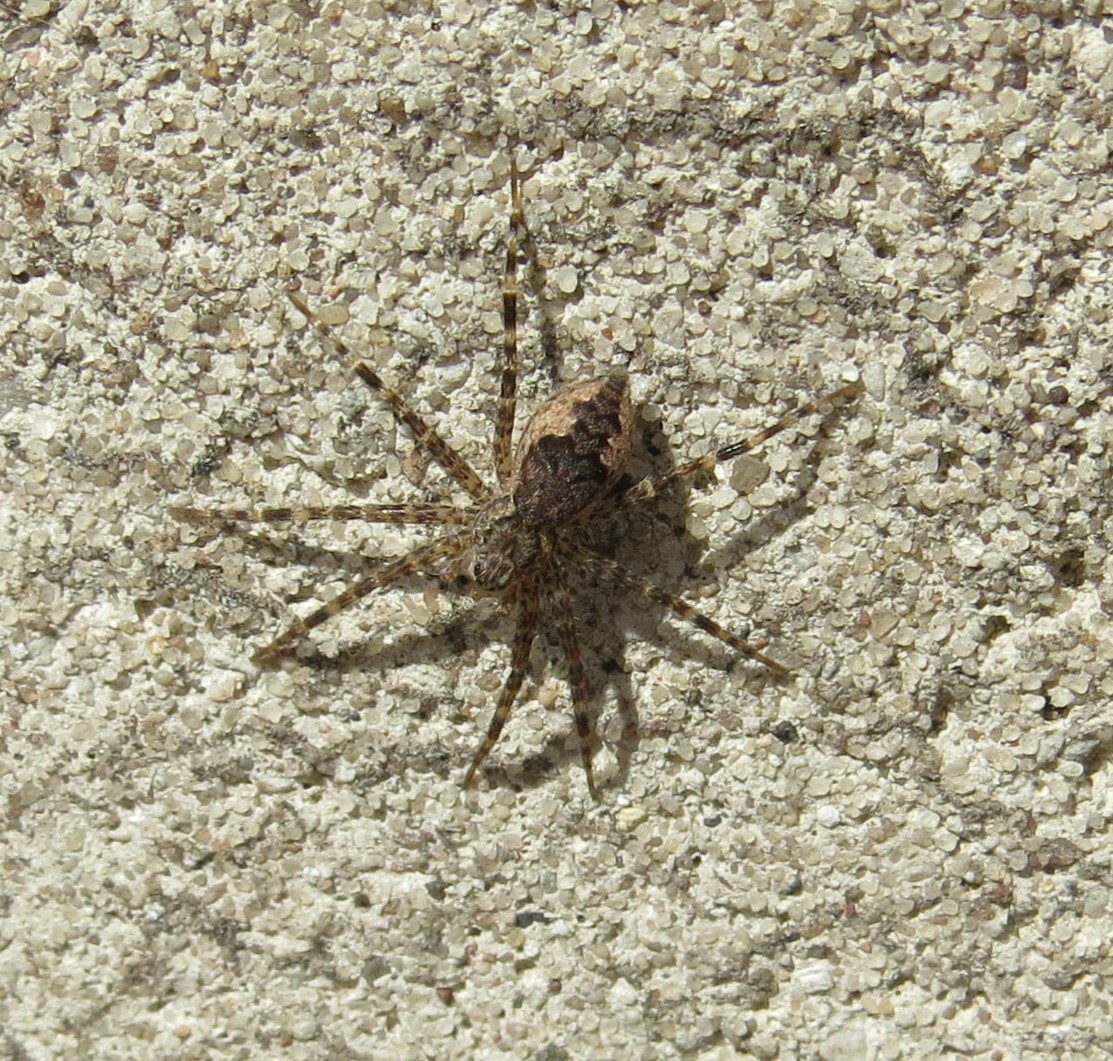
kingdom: Animalia
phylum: Arthropoda
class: Arachnida
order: Araneae
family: Pisauridae
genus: Dolomedes
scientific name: Dolomedes tenebrosus
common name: Dark fishing spider
